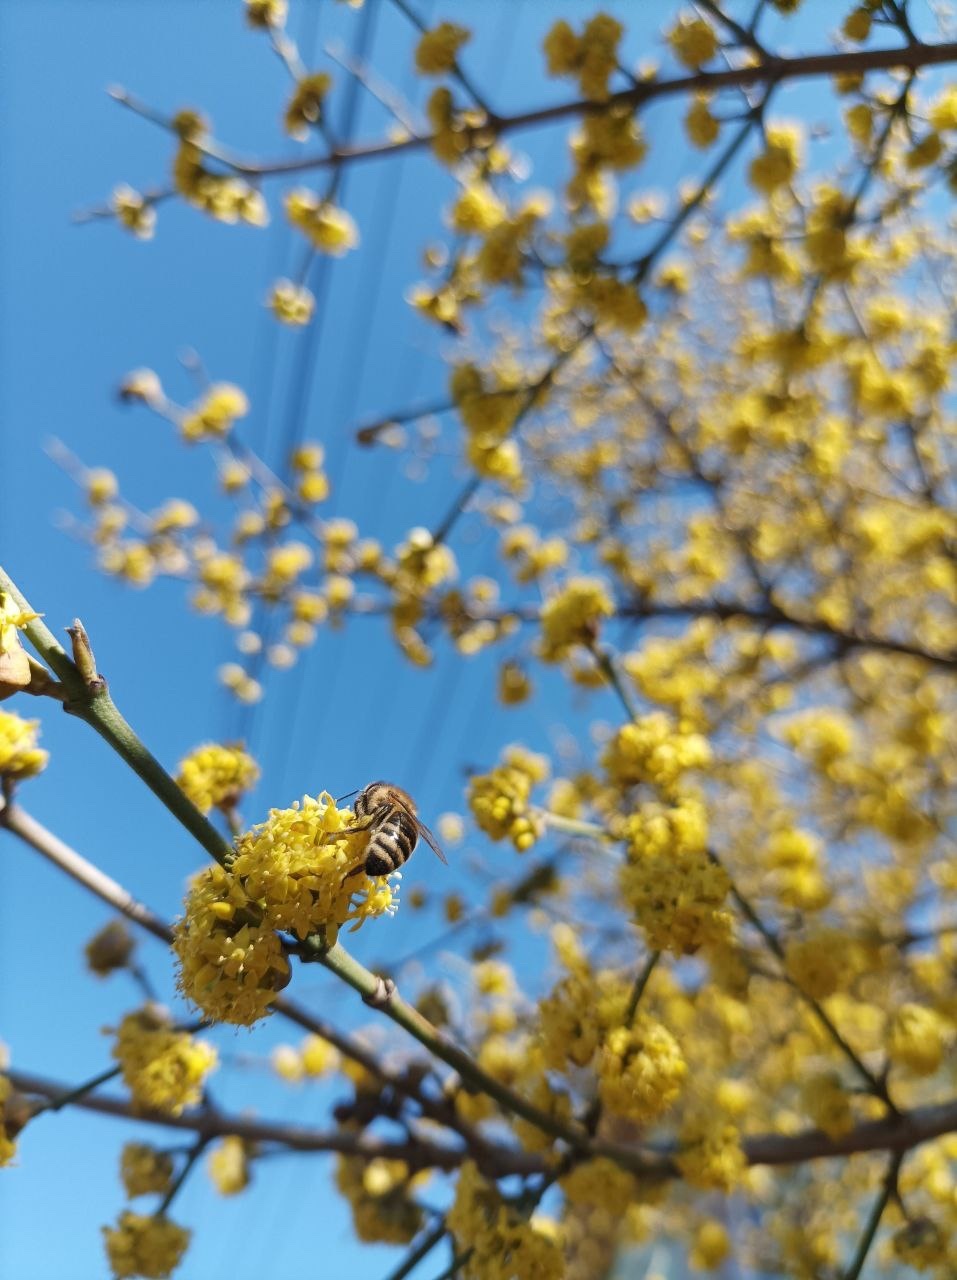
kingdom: Animalia
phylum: Arthropoda
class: Insecta
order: Hymenoptera
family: Apidae
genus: Apis
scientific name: Apis mellifera
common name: Honey bee
